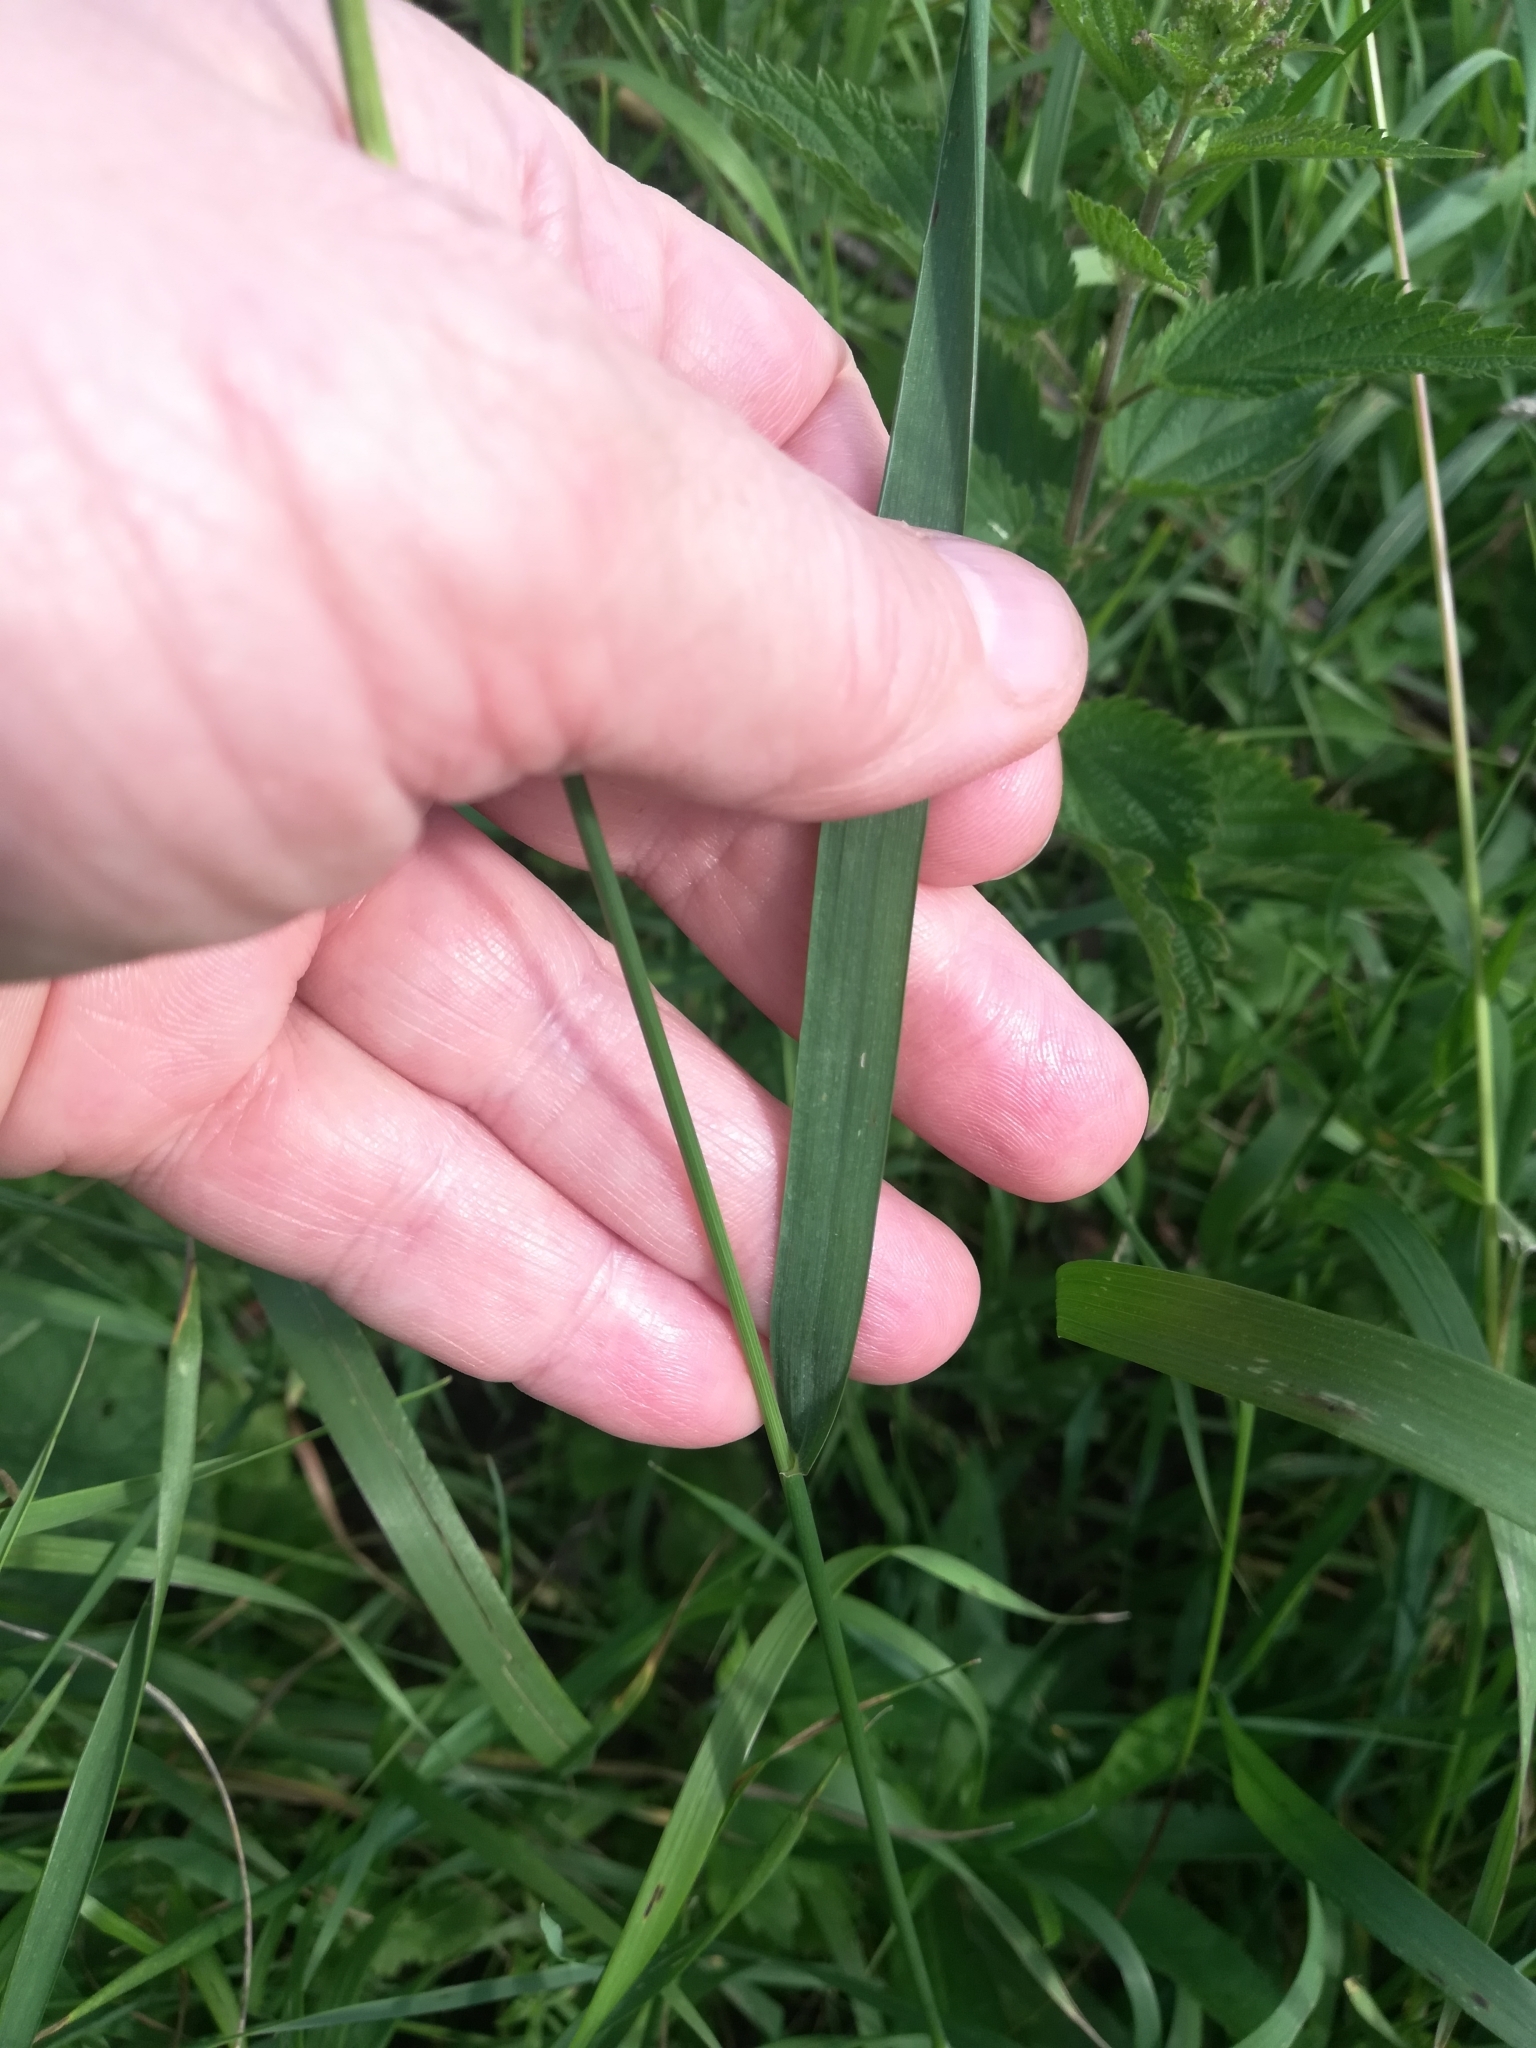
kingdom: Plantae
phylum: Tracheophyta
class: Liliopsida
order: Poales
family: Poaceae
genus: Elymus
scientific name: Elymus repens
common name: Quackgrass
